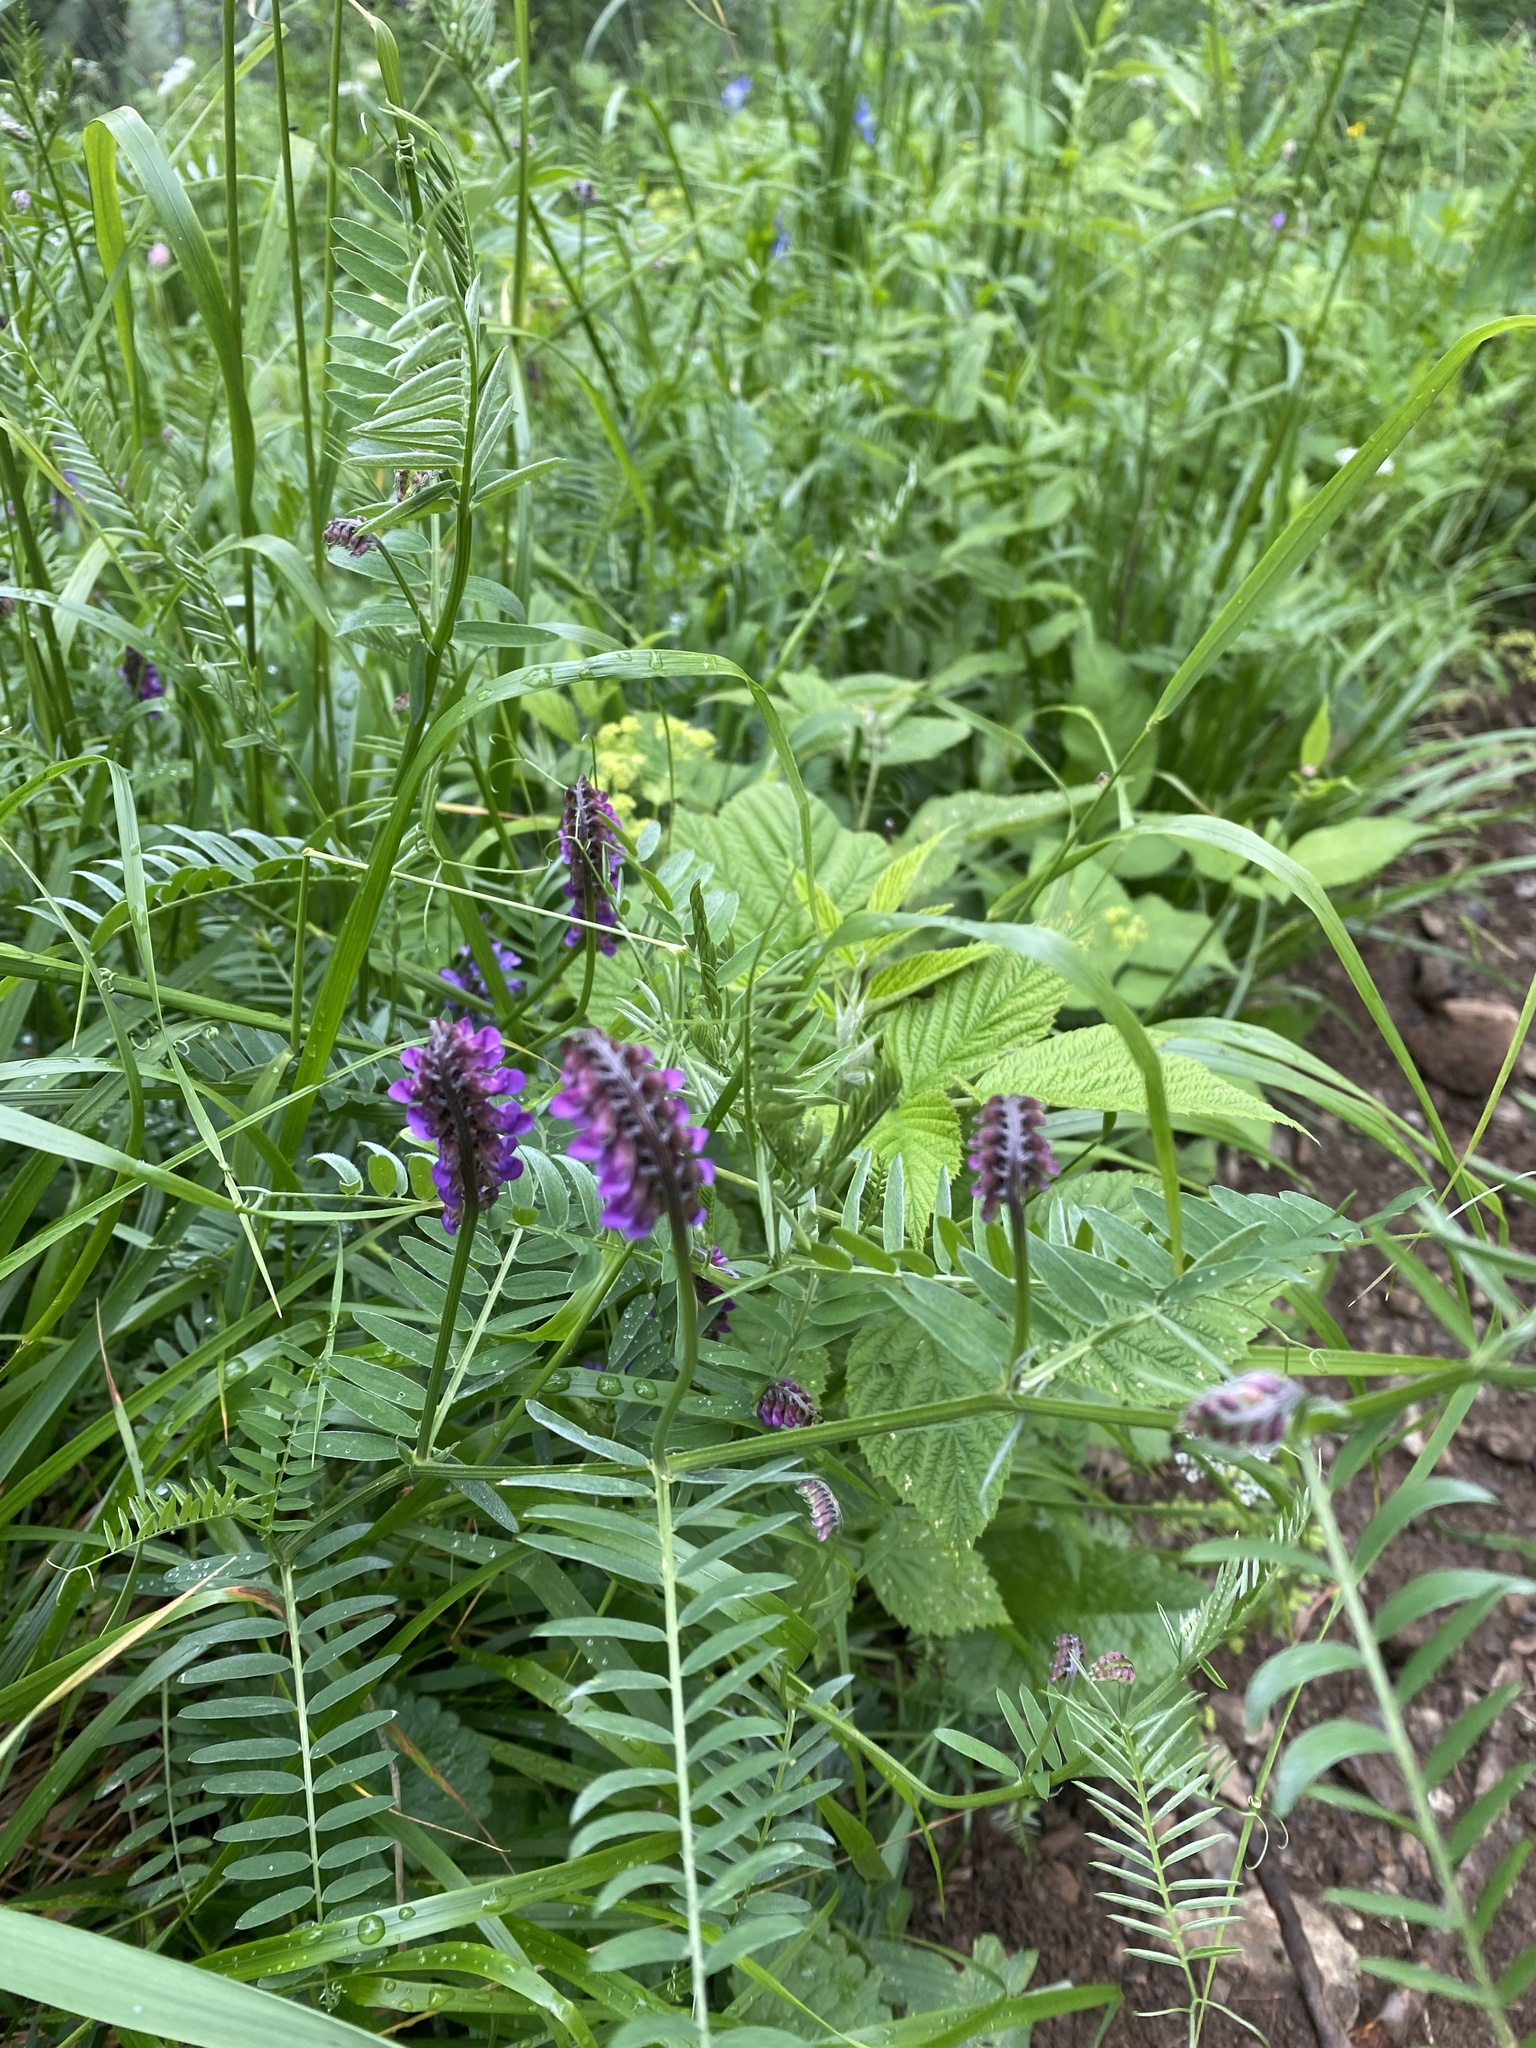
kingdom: Plantae
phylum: Tracheophyta
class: Magnoliopsida
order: Fabales
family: Fabaceae
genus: Vicia
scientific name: Vicia cracca
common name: Bird vetch
